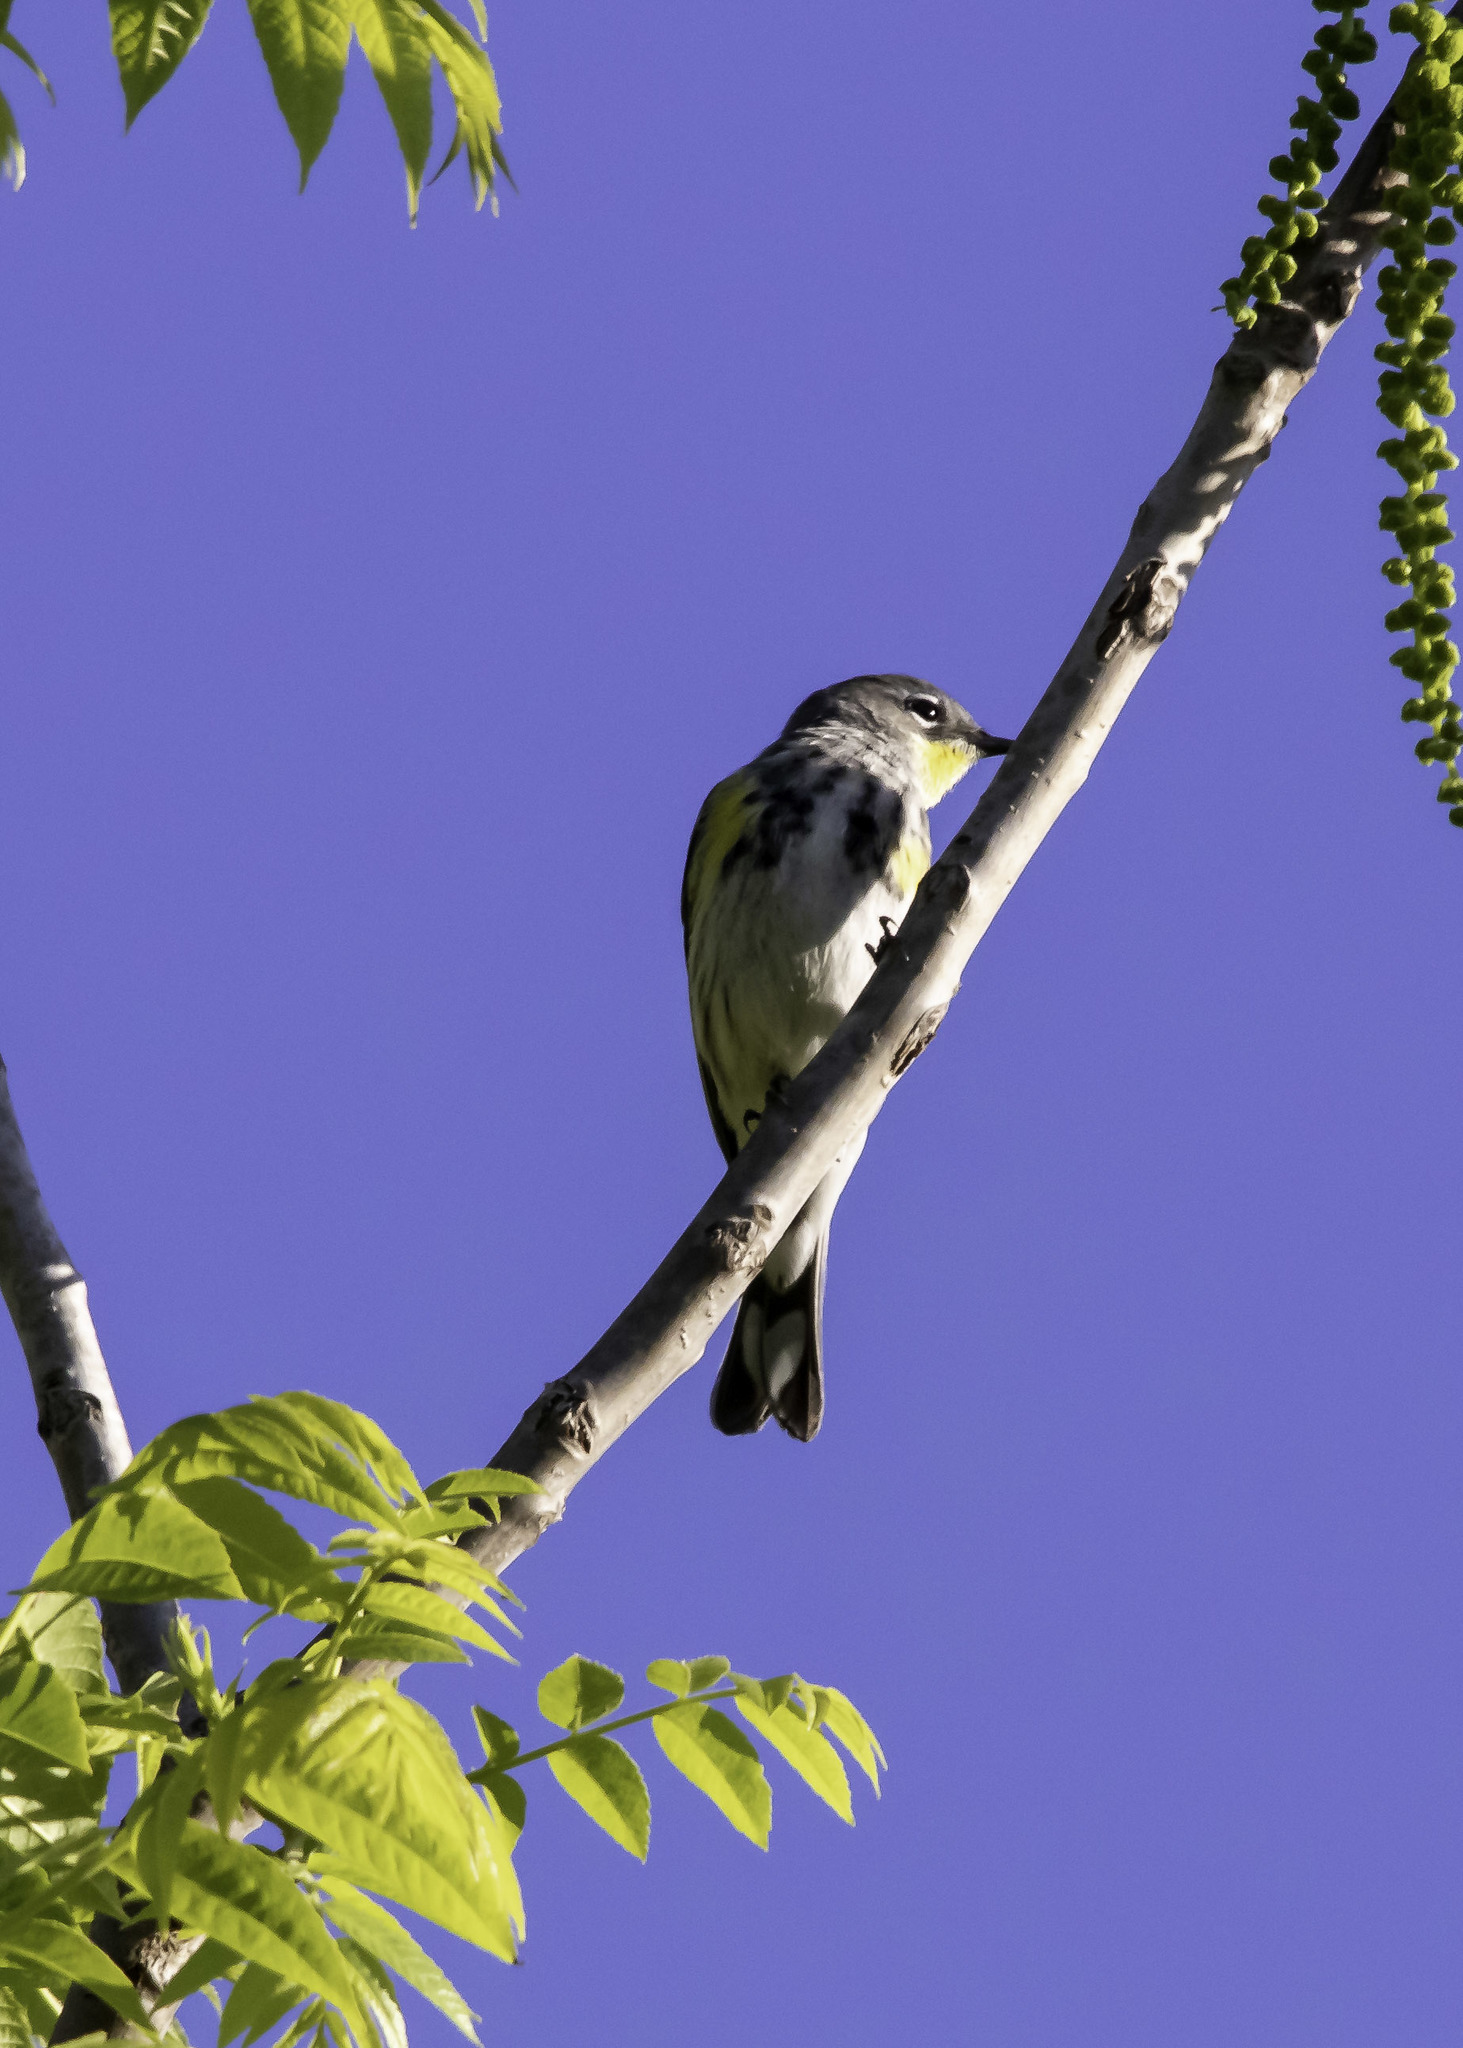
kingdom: Animalia
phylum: Chordata
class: Aves
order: Passeriformes
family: Parulidae
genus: Setophaga
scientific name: Setophaga coronata
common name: Myrtle warbler
